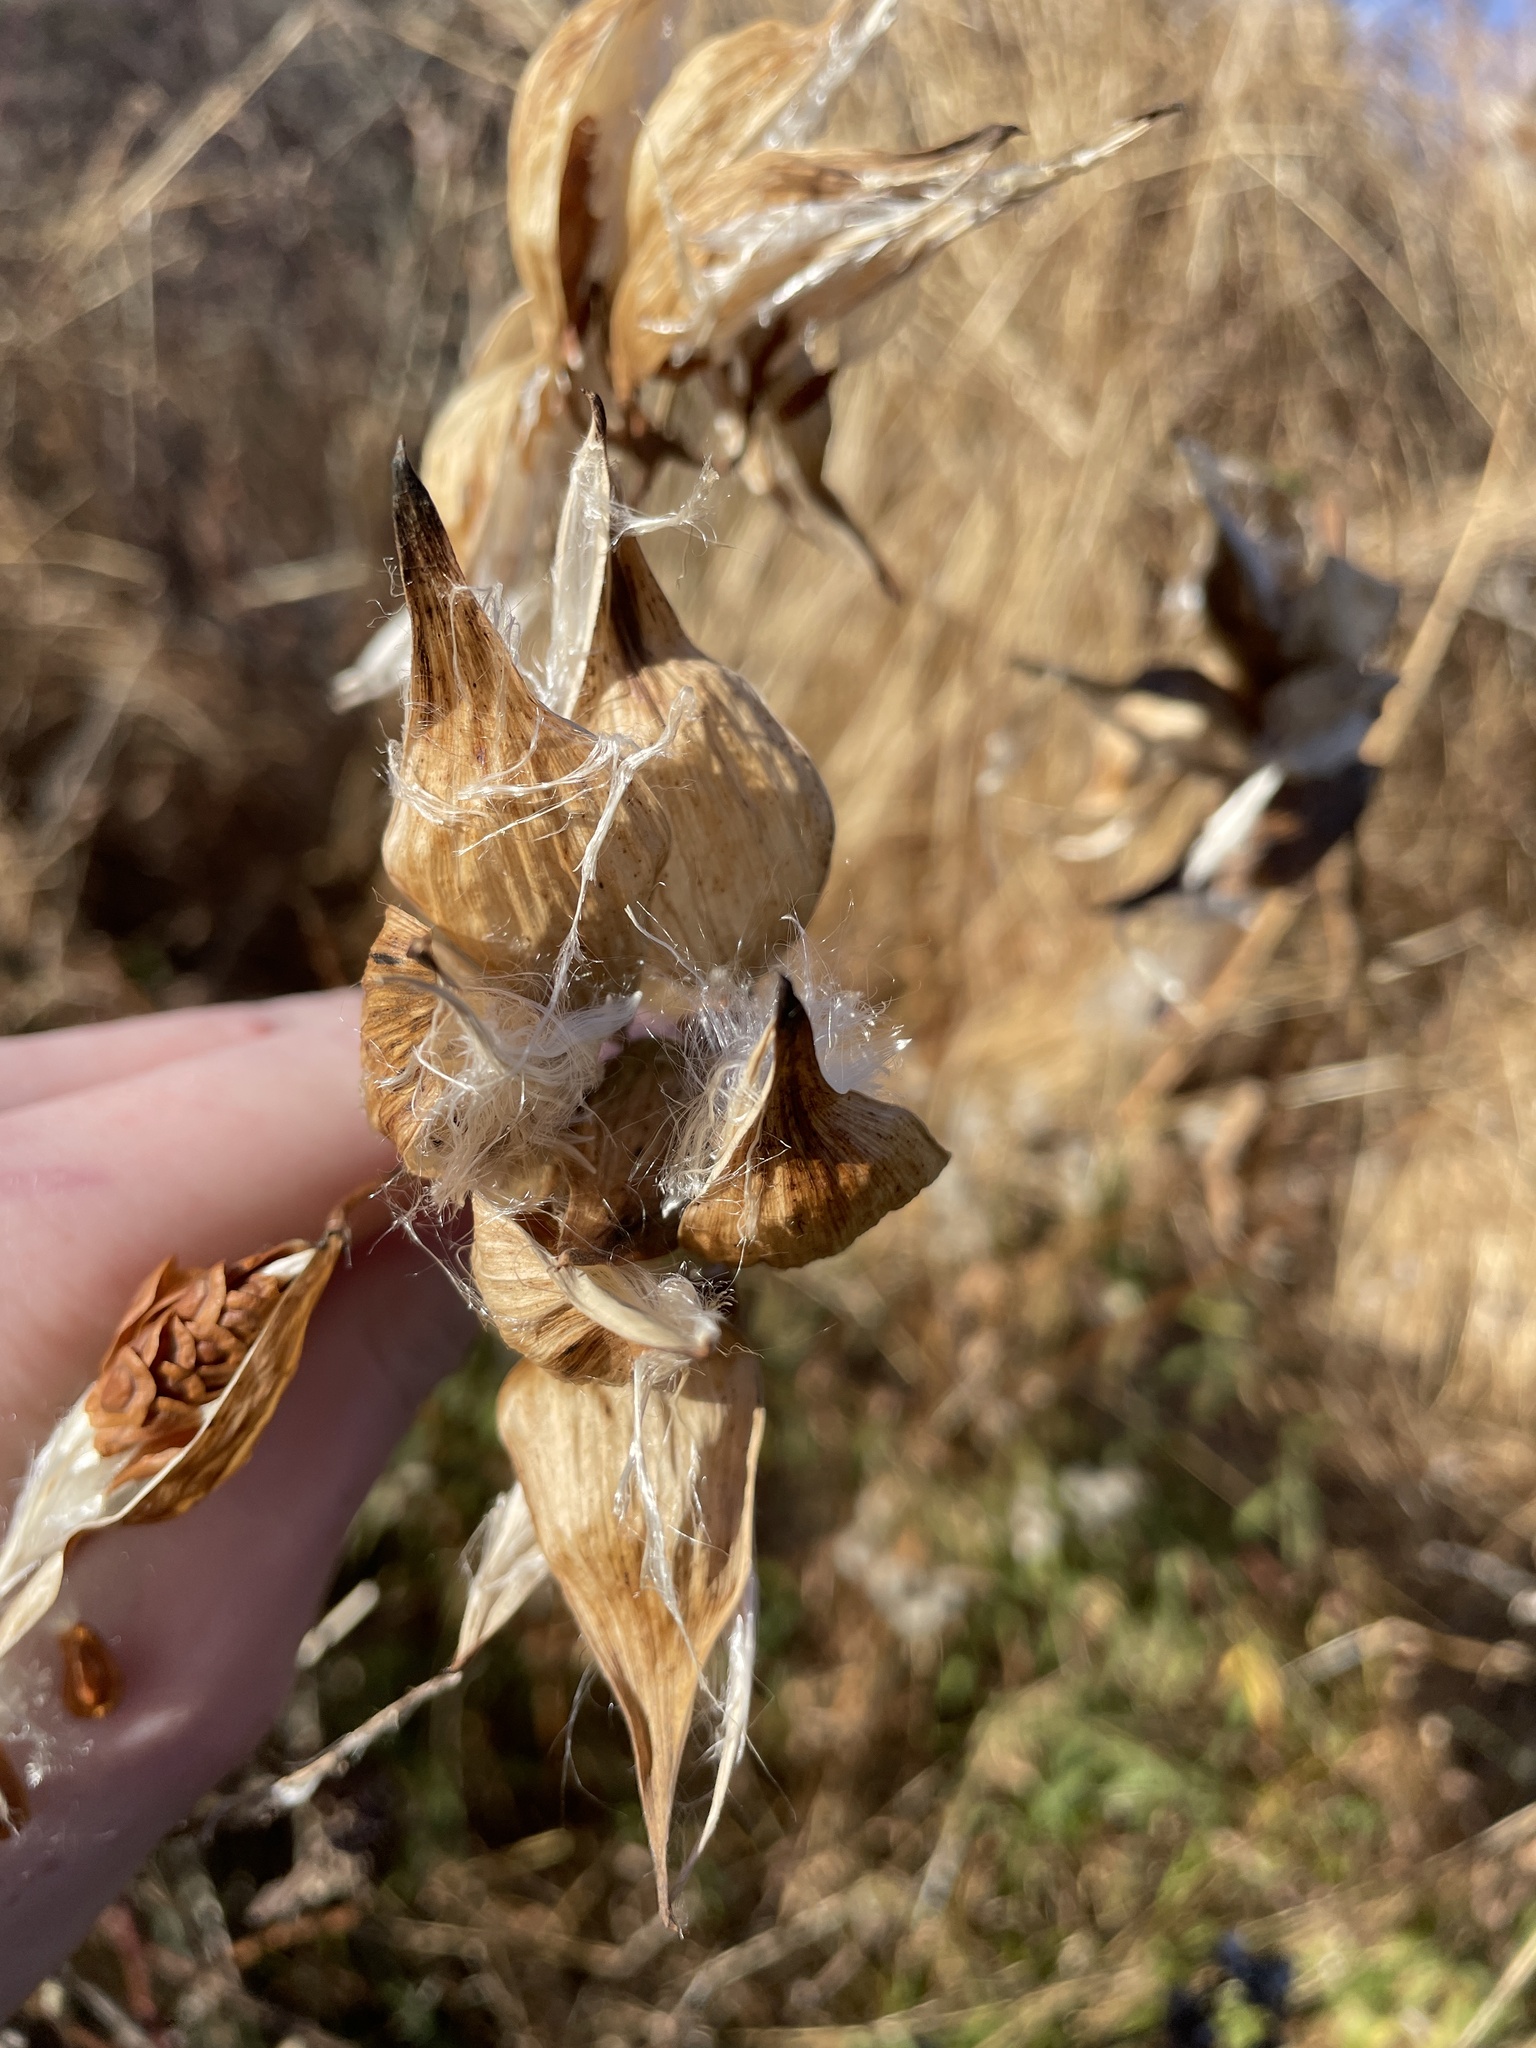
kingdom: Plantae
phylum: Tracheophyta
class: Magnoliopsida
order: Gentianales
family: Apocynaceae
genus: Asclepias
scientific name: Asclepias syriaca
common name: Common milkweed
